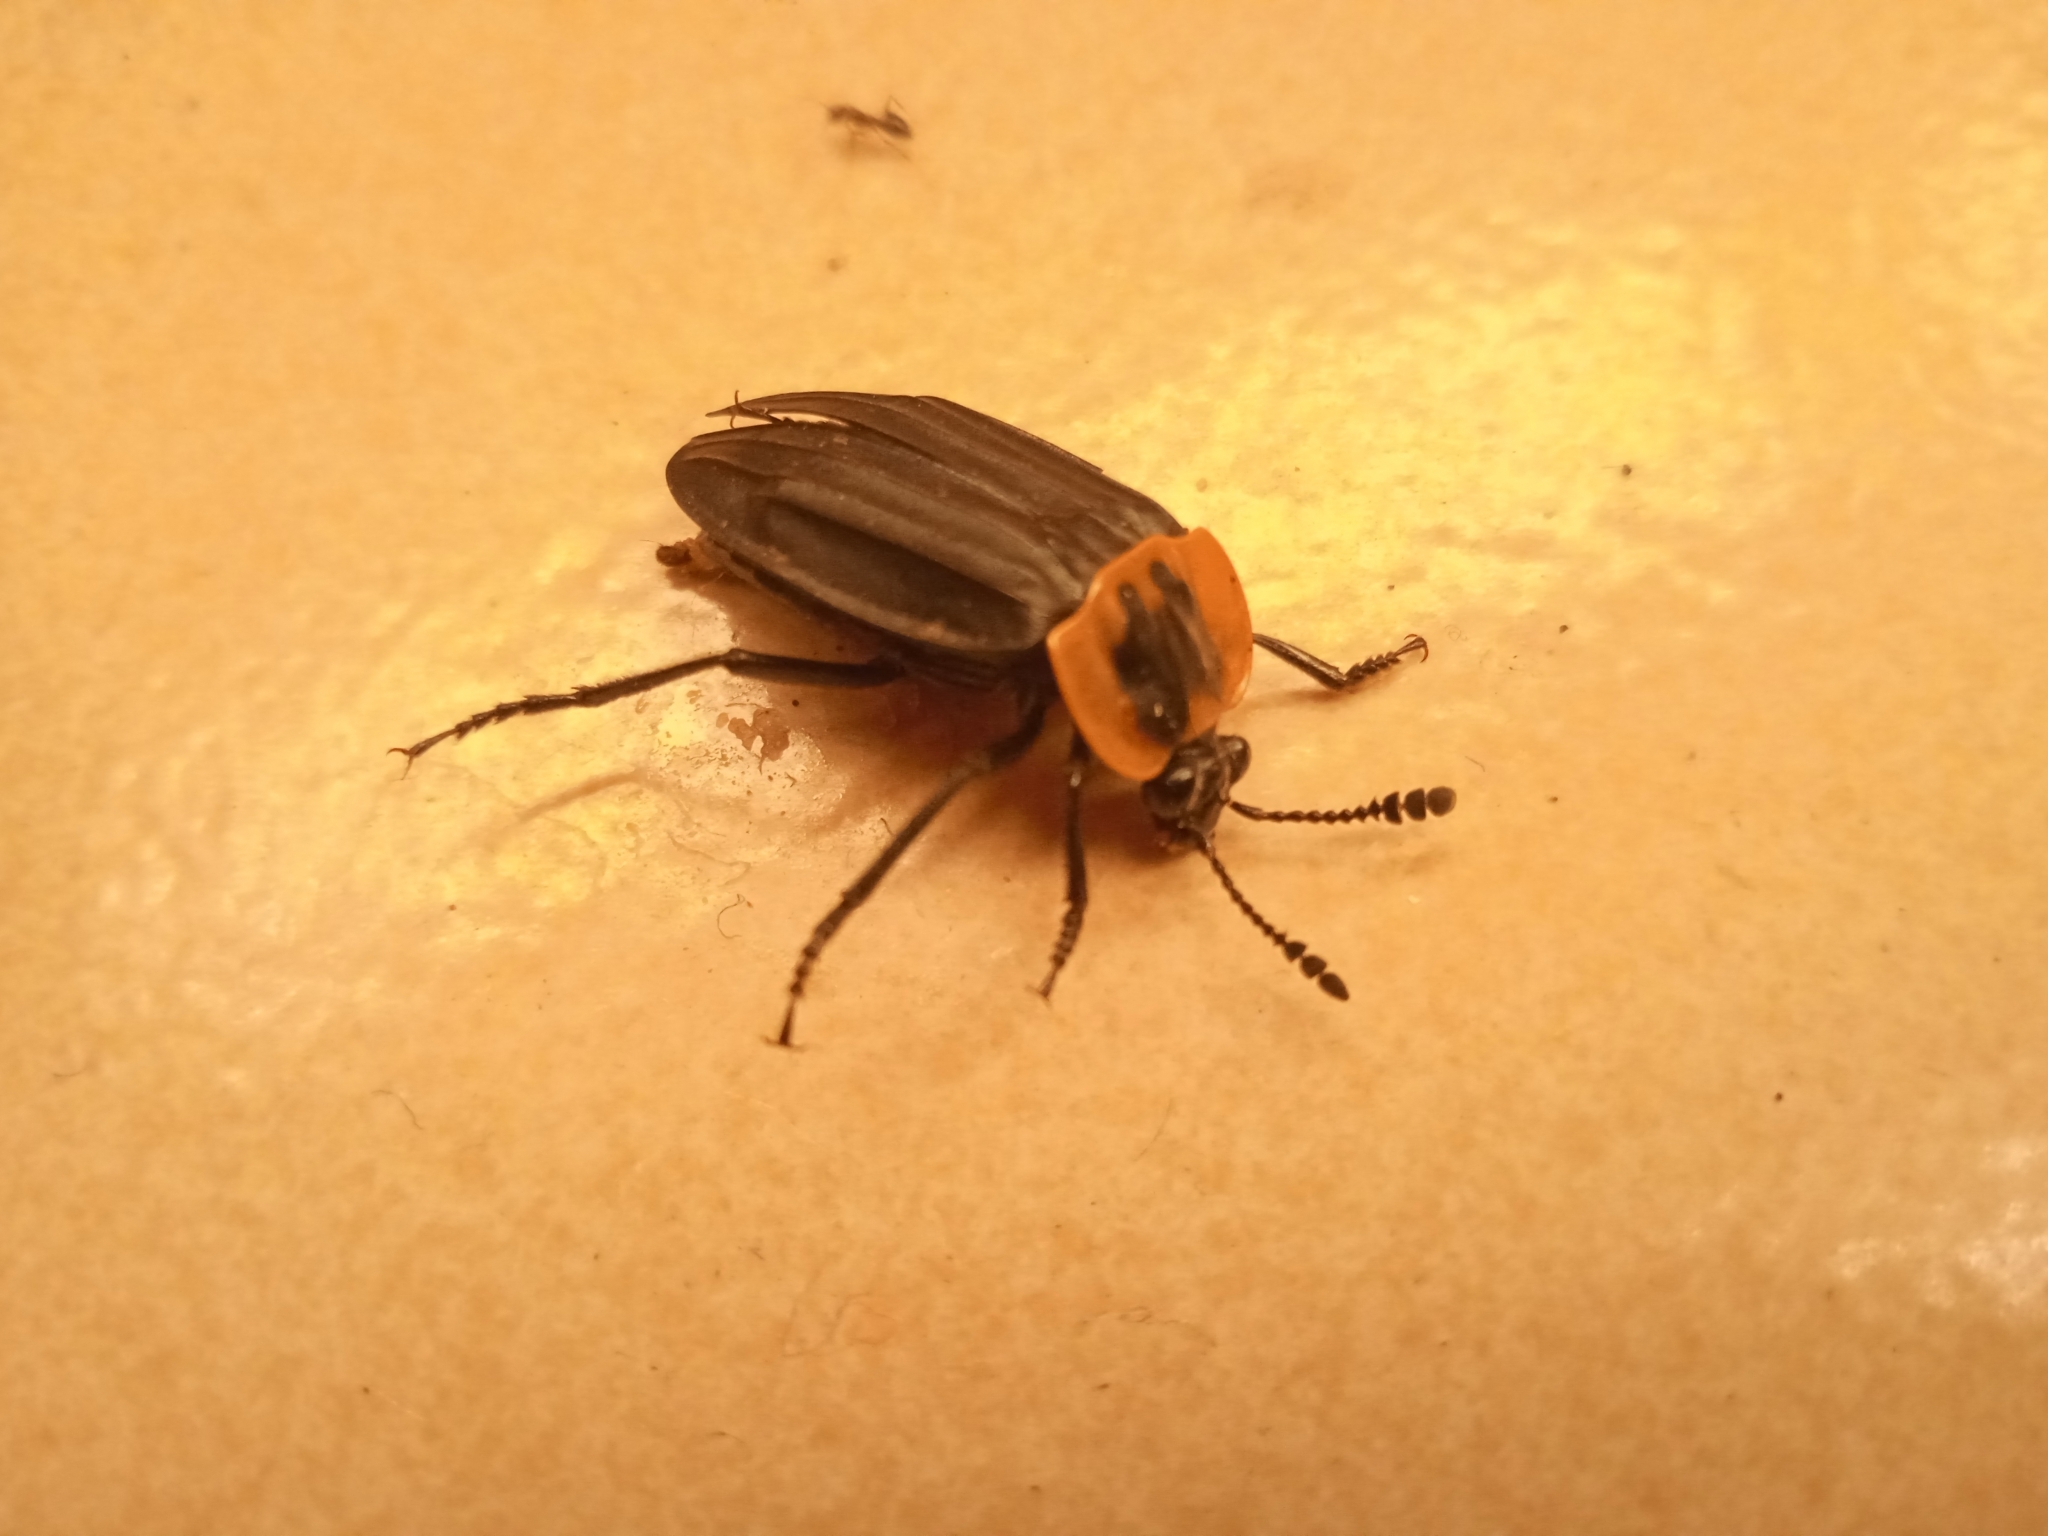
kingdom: Animalia
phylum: Arthropoda
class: Insecta
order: Coleoptera
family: Staphylinidae
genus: Oxelytrum
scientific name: Oxelytrum discicolle
